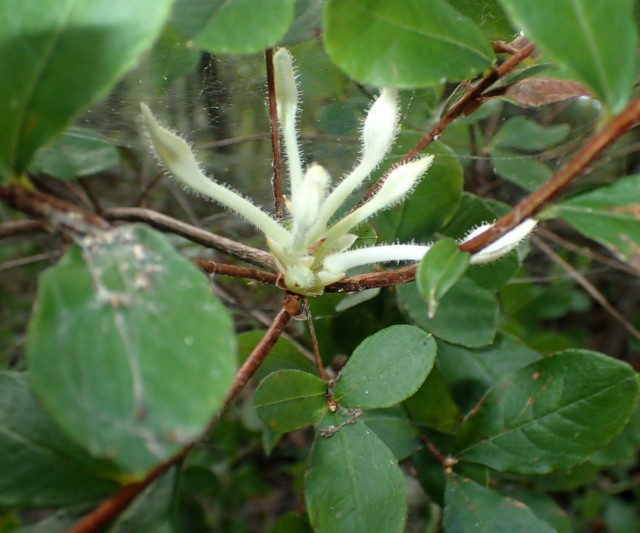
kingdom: Plantae
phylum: Tracheophyta
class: Magnoliopsida
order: Ericales
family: Ericaceae
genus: Rhododendron
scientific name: Rhododendron serrulatum
